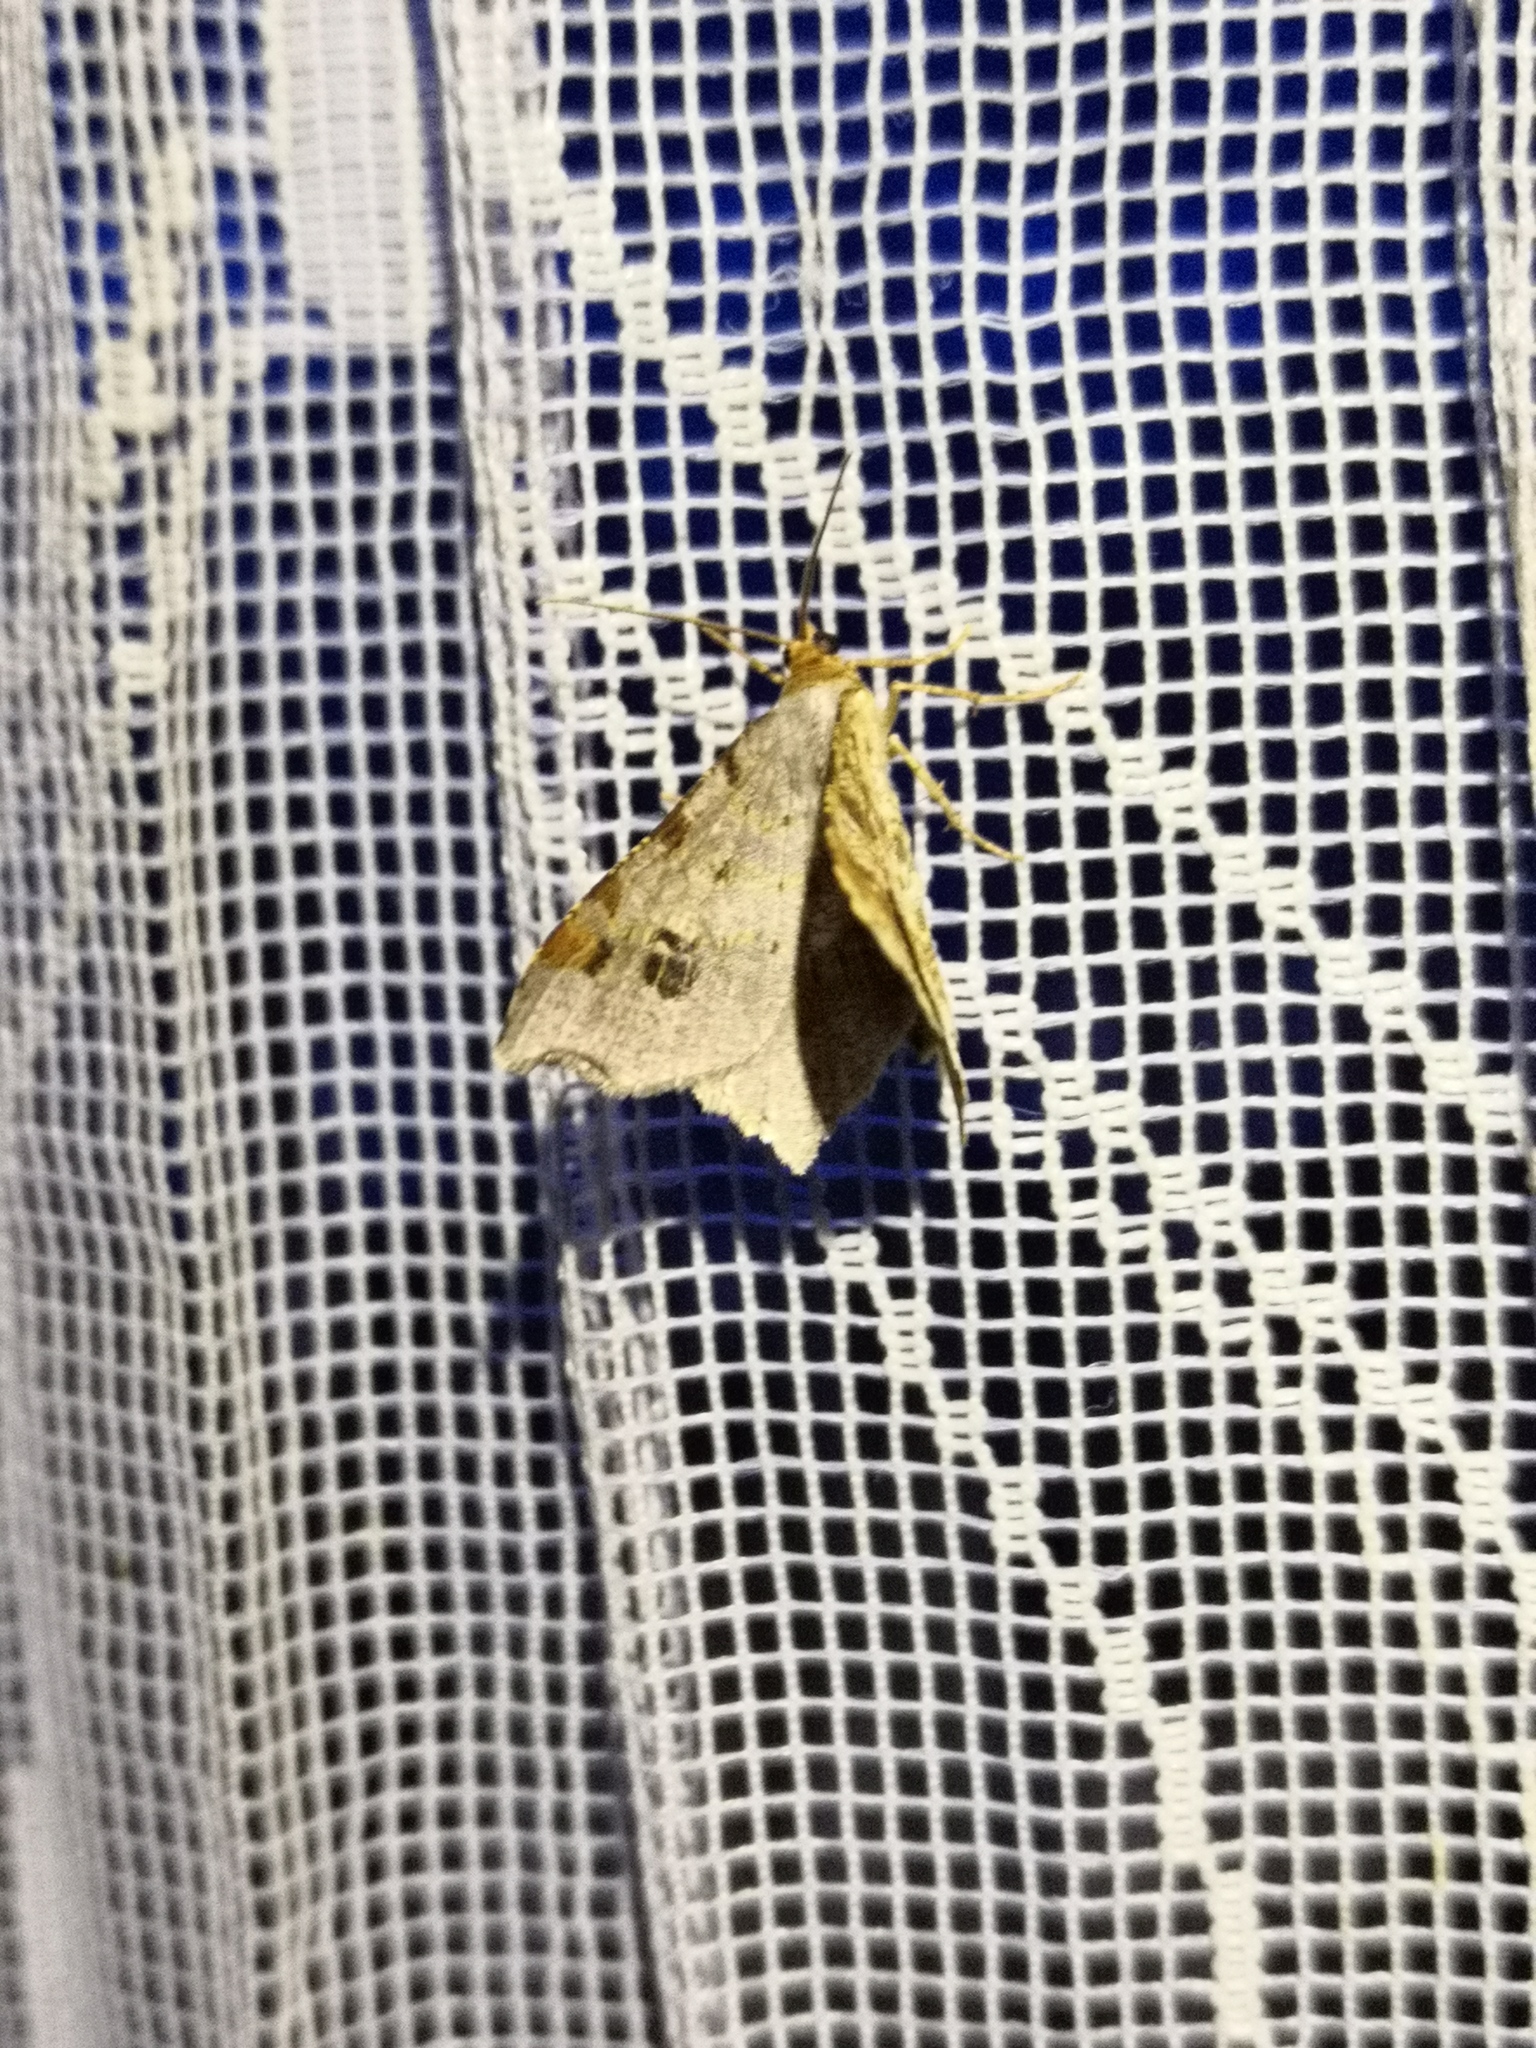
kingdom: Animalia
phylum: Arthropoda
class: Insecta
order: Lepidoptera
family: Geometridae
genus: Macaria
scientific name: Macaria alternata
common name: Sharp-angled peacock
